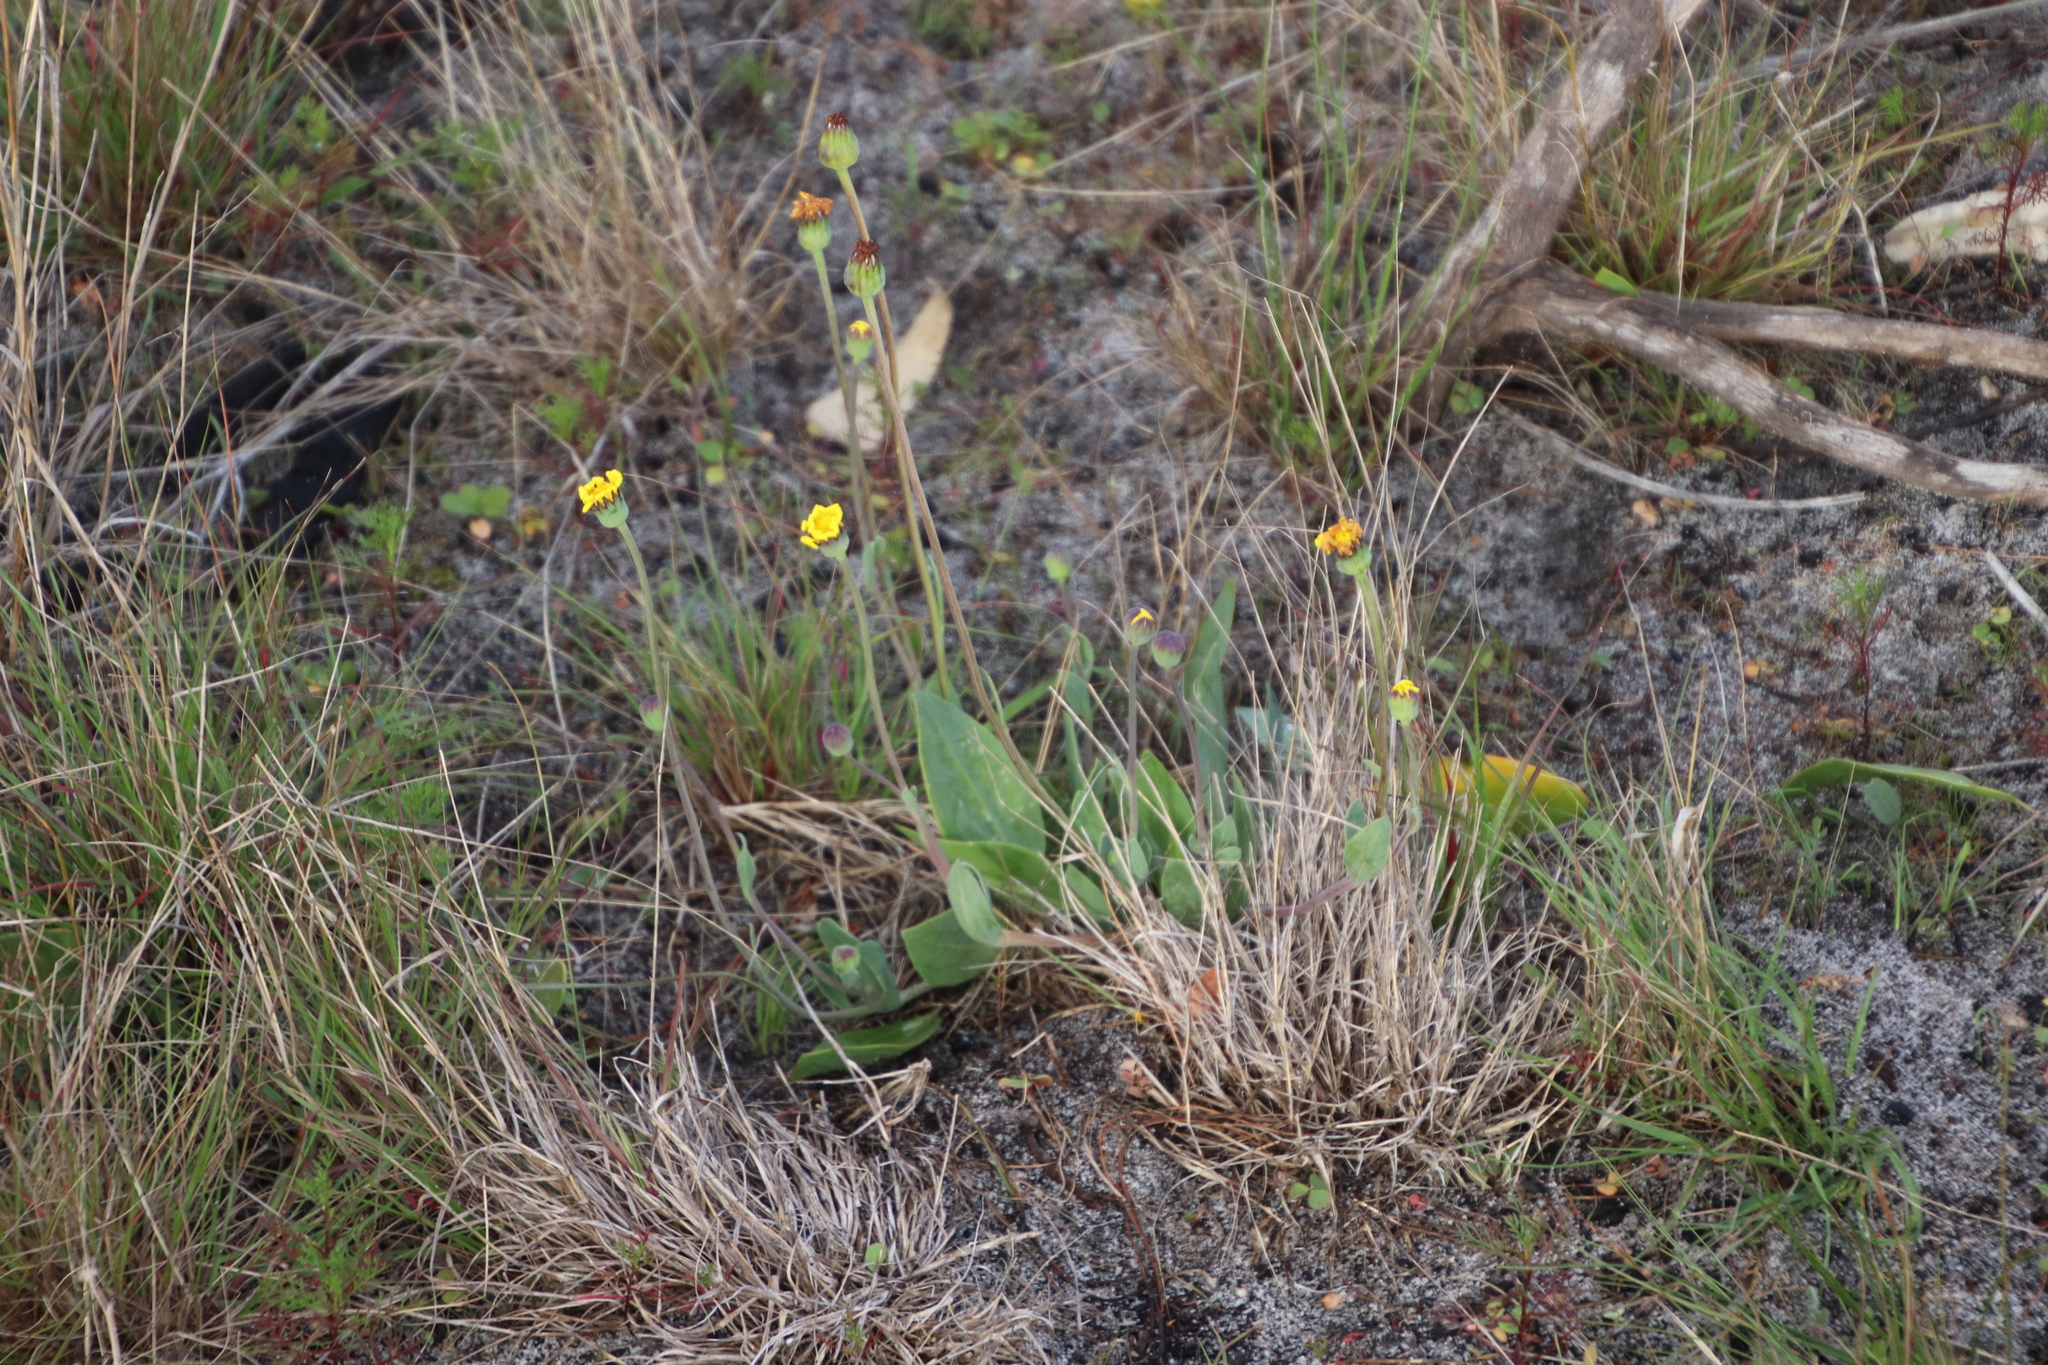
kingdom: Plantae
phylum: Tracheophyta
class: Magnoliopsida
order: Asterales
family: Asteraceae
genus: Othonna
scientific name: Othonna bulbosa
